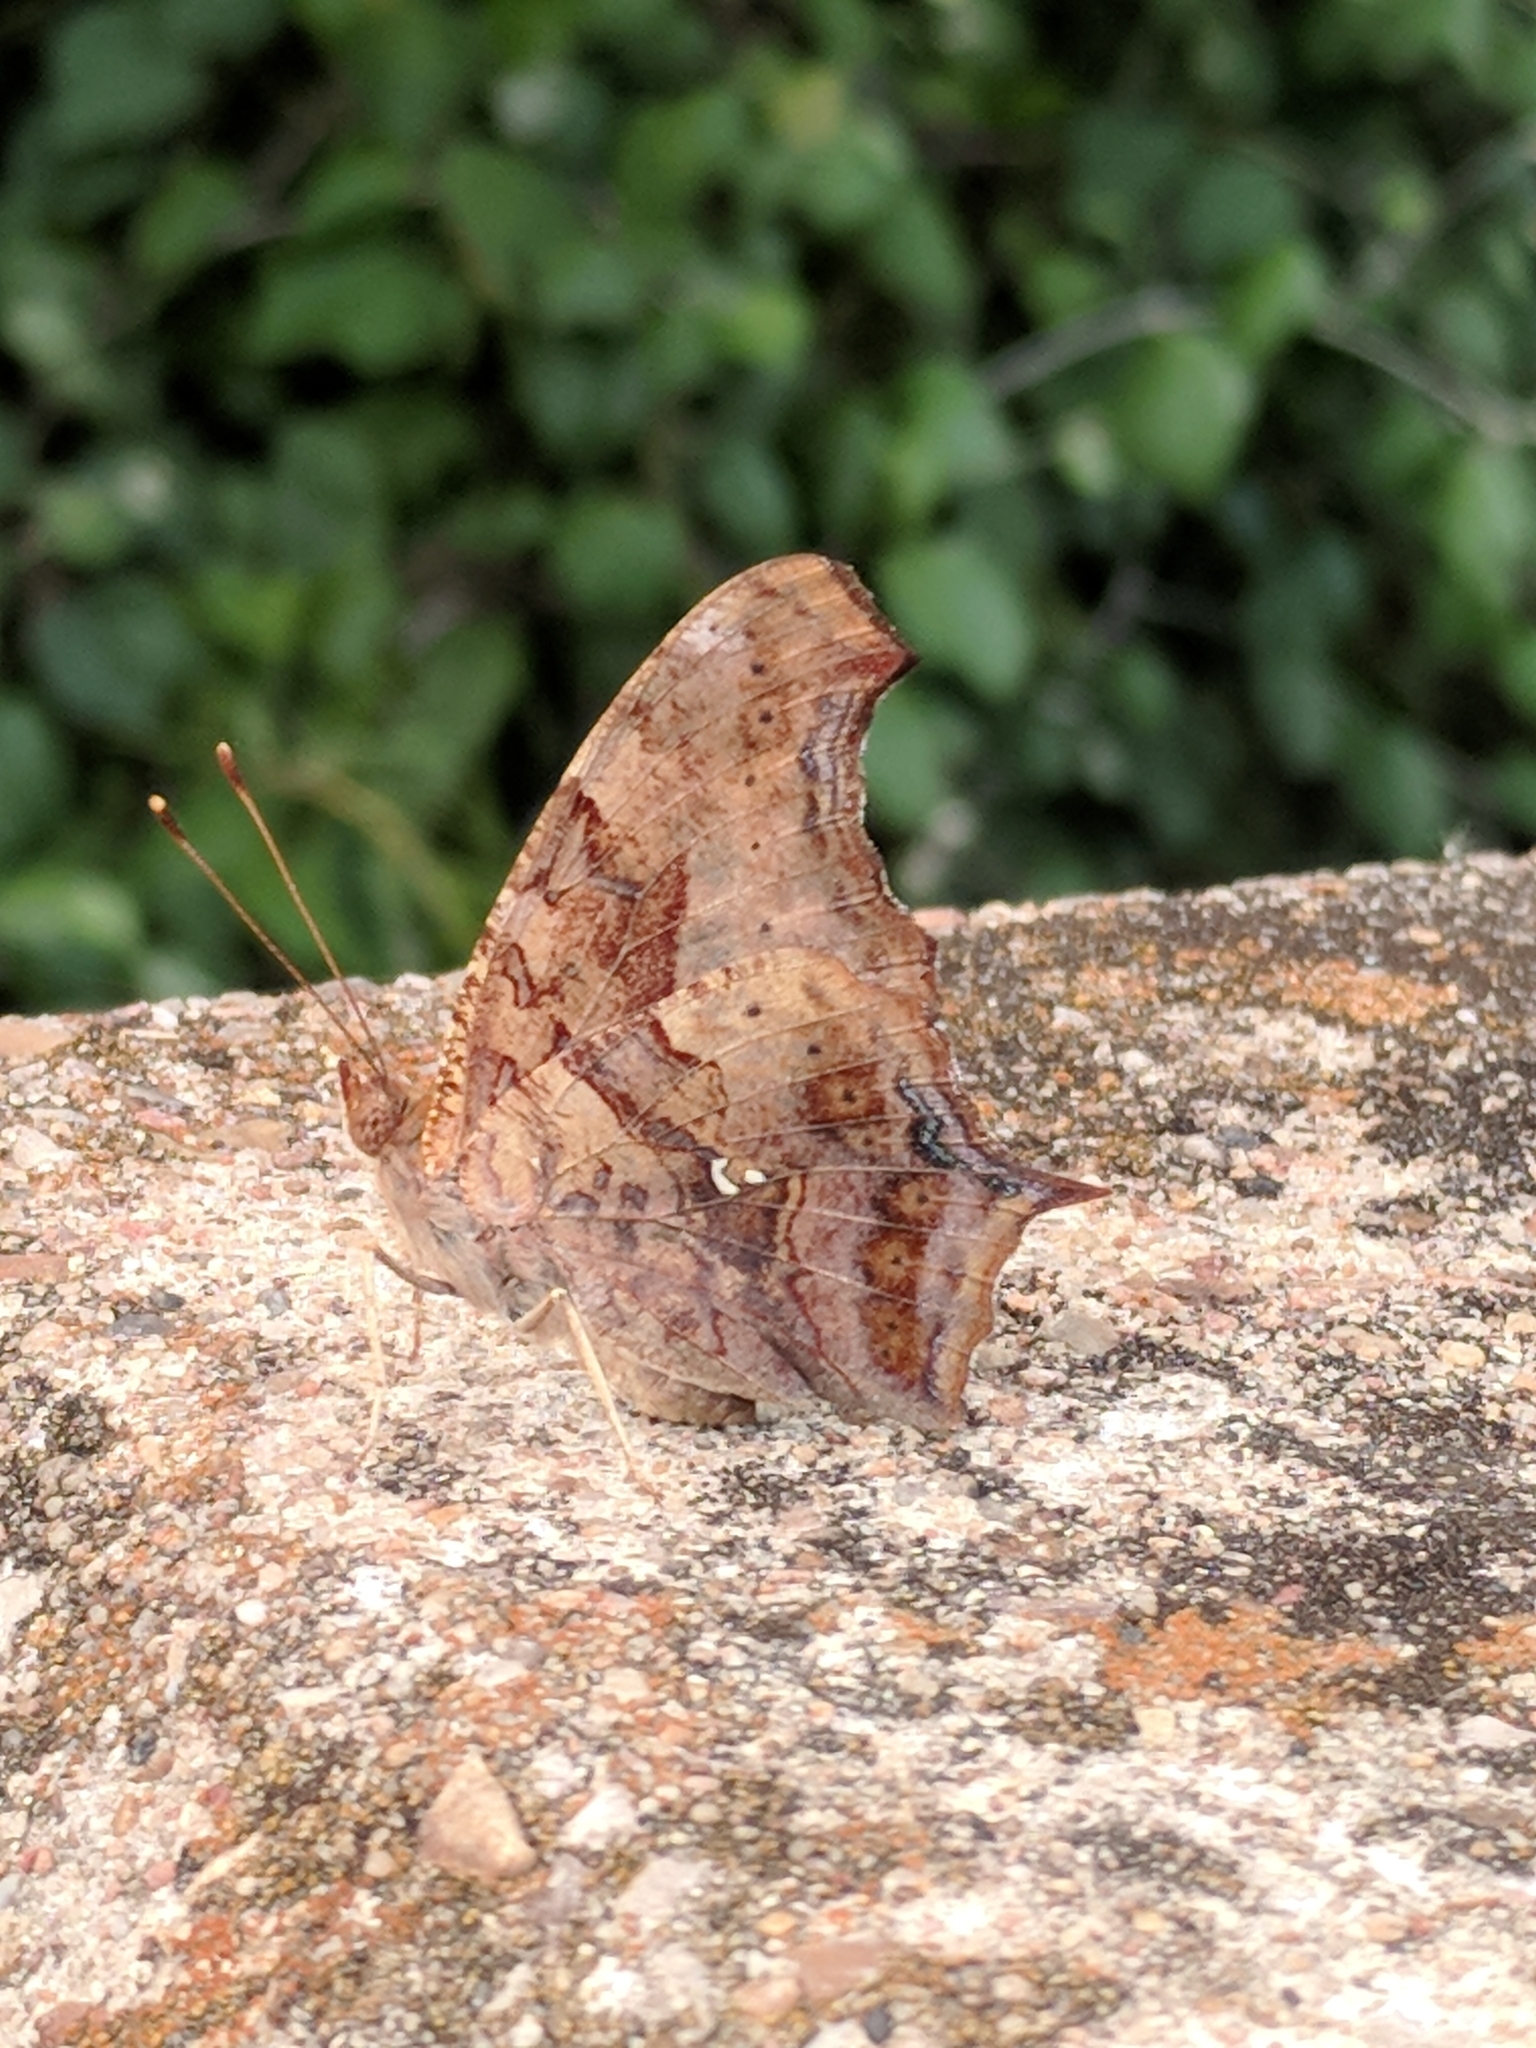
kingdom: Animalia
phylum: Arthropoda
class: Insecta
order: Lepidoptera
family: Nymphalidae
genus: Polygonia
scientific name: Polygonia interrogationis
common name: Question mark
